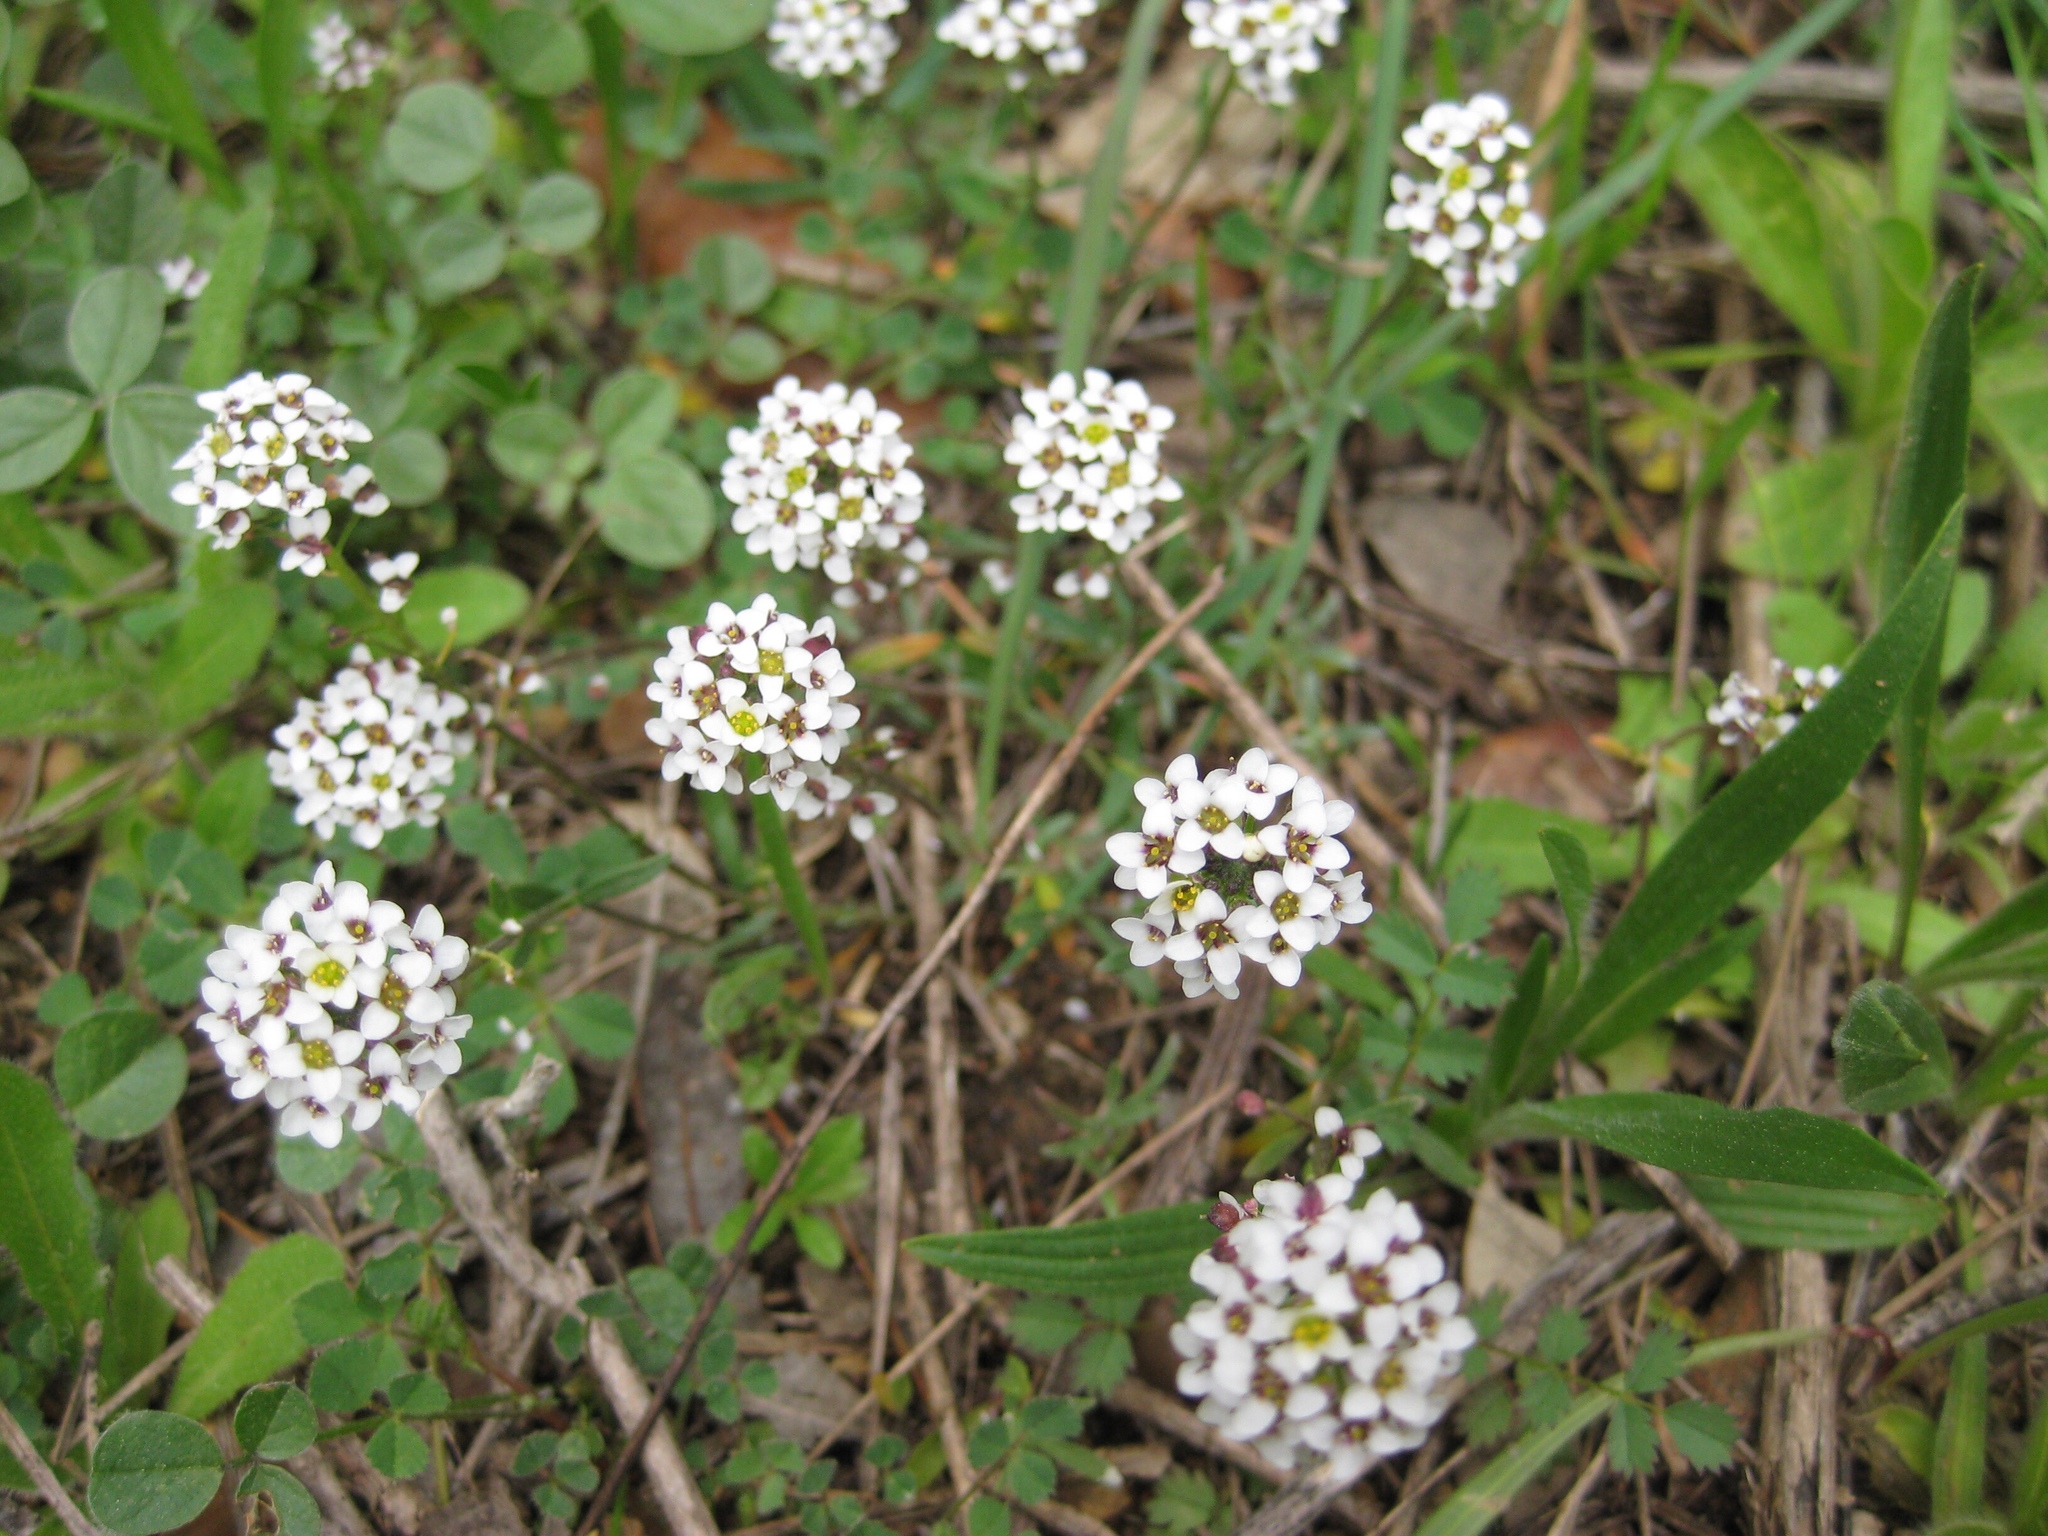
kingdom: Plantae
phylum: Tracheophyta
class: Magnoliopsida
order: Brassicales
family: Brassicaceae
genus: Lobularia
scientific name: Lobularia maritima
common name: Sweet alison
